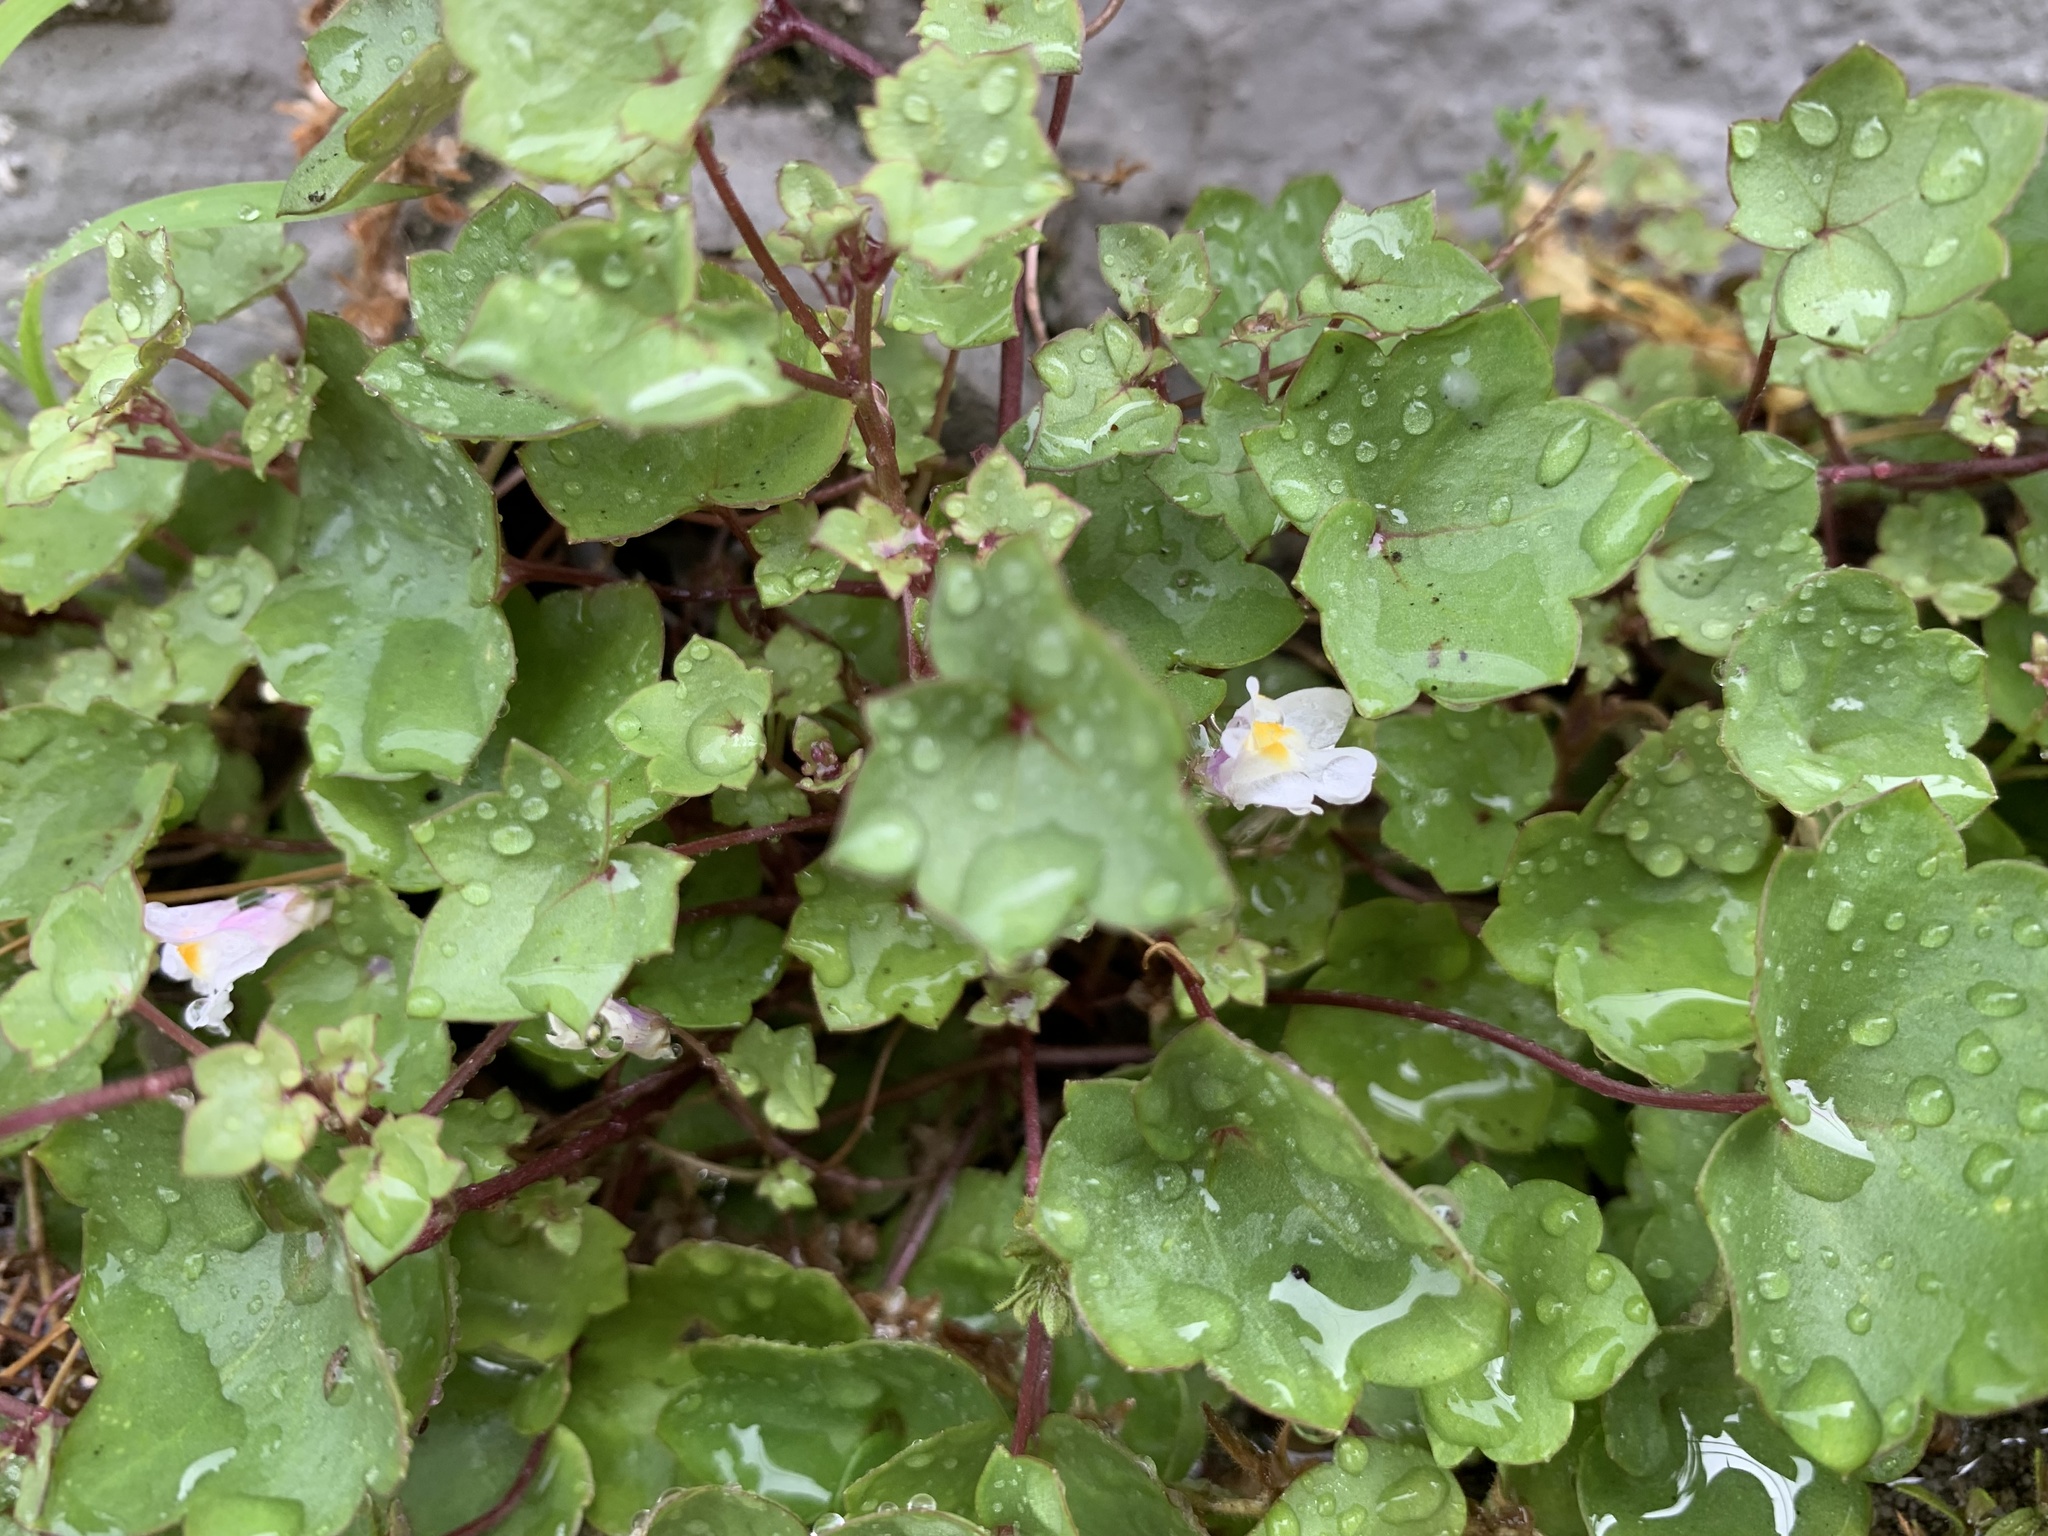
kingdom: Plantae
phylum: Tracheophyta
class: Magnoliopsida
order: Lamiales
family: Plantaginaceae
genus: Cymbalaria
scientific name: Cymbalaria muralis
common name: Ivy-leaved toadflax
